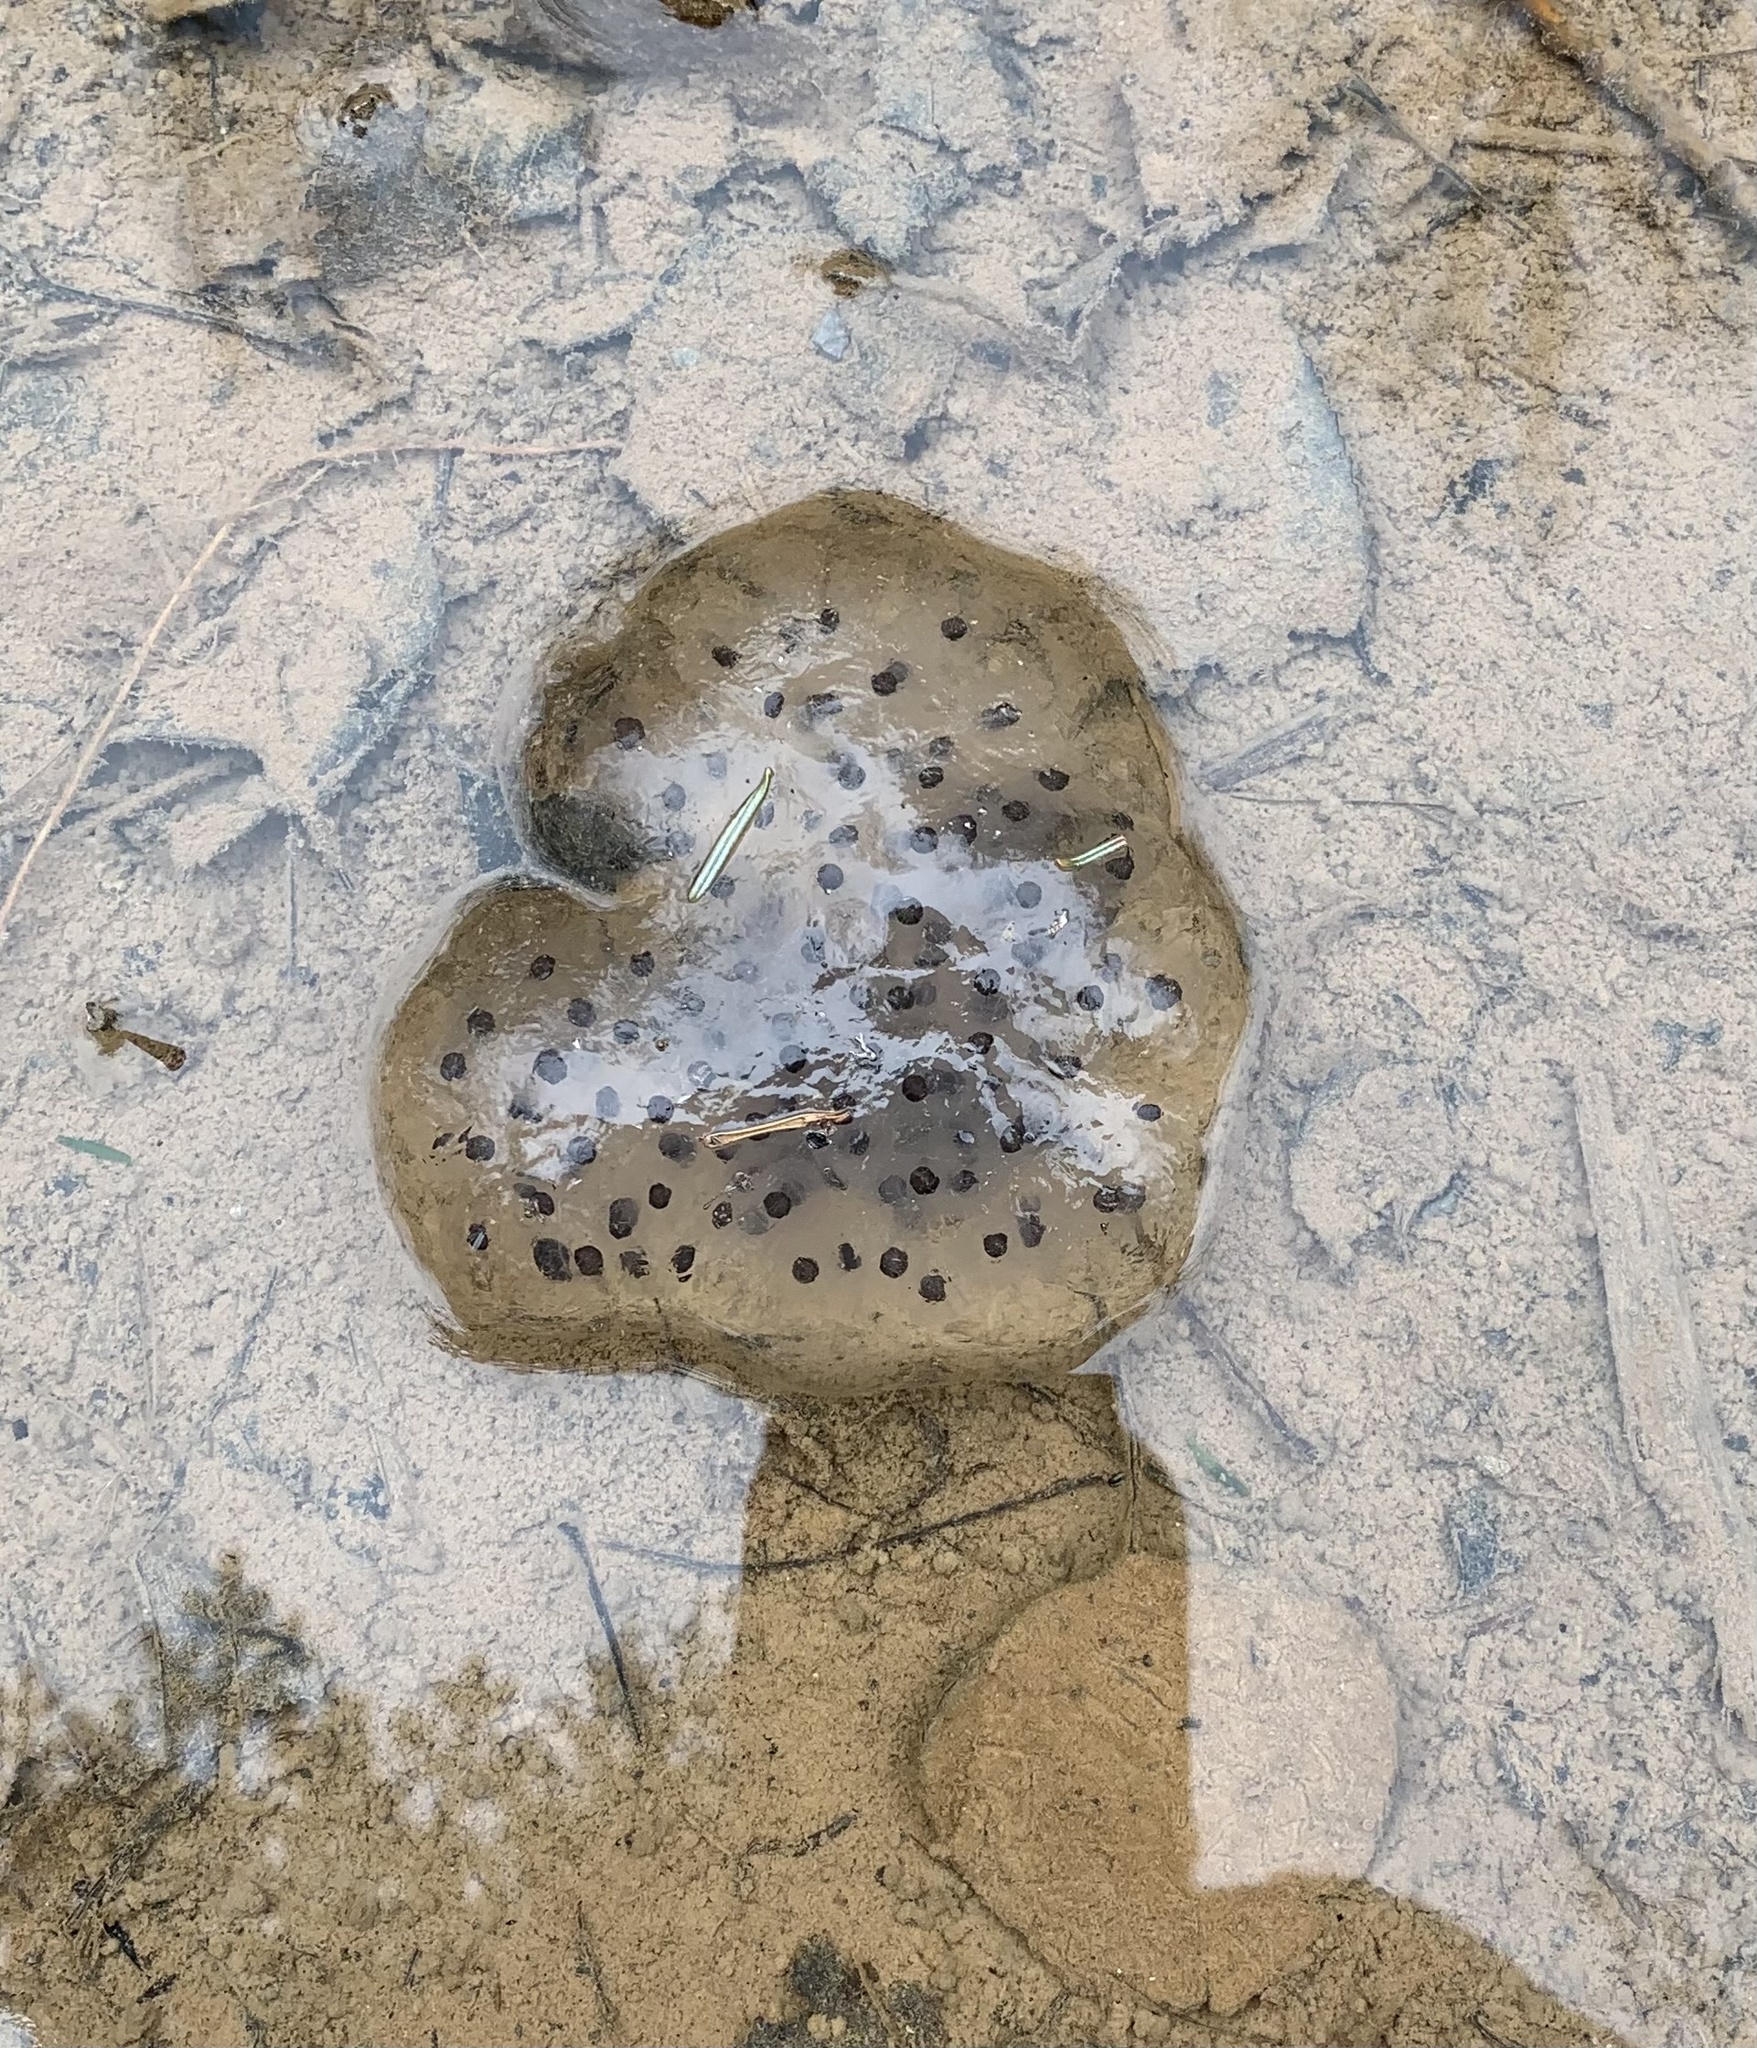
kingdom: Animalia
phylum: Chordata
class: Amphibia
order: Caudata
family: Ambystomatidae
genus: Ambystoma
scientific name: Ambystoma maculatum
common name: Spotted salamander
